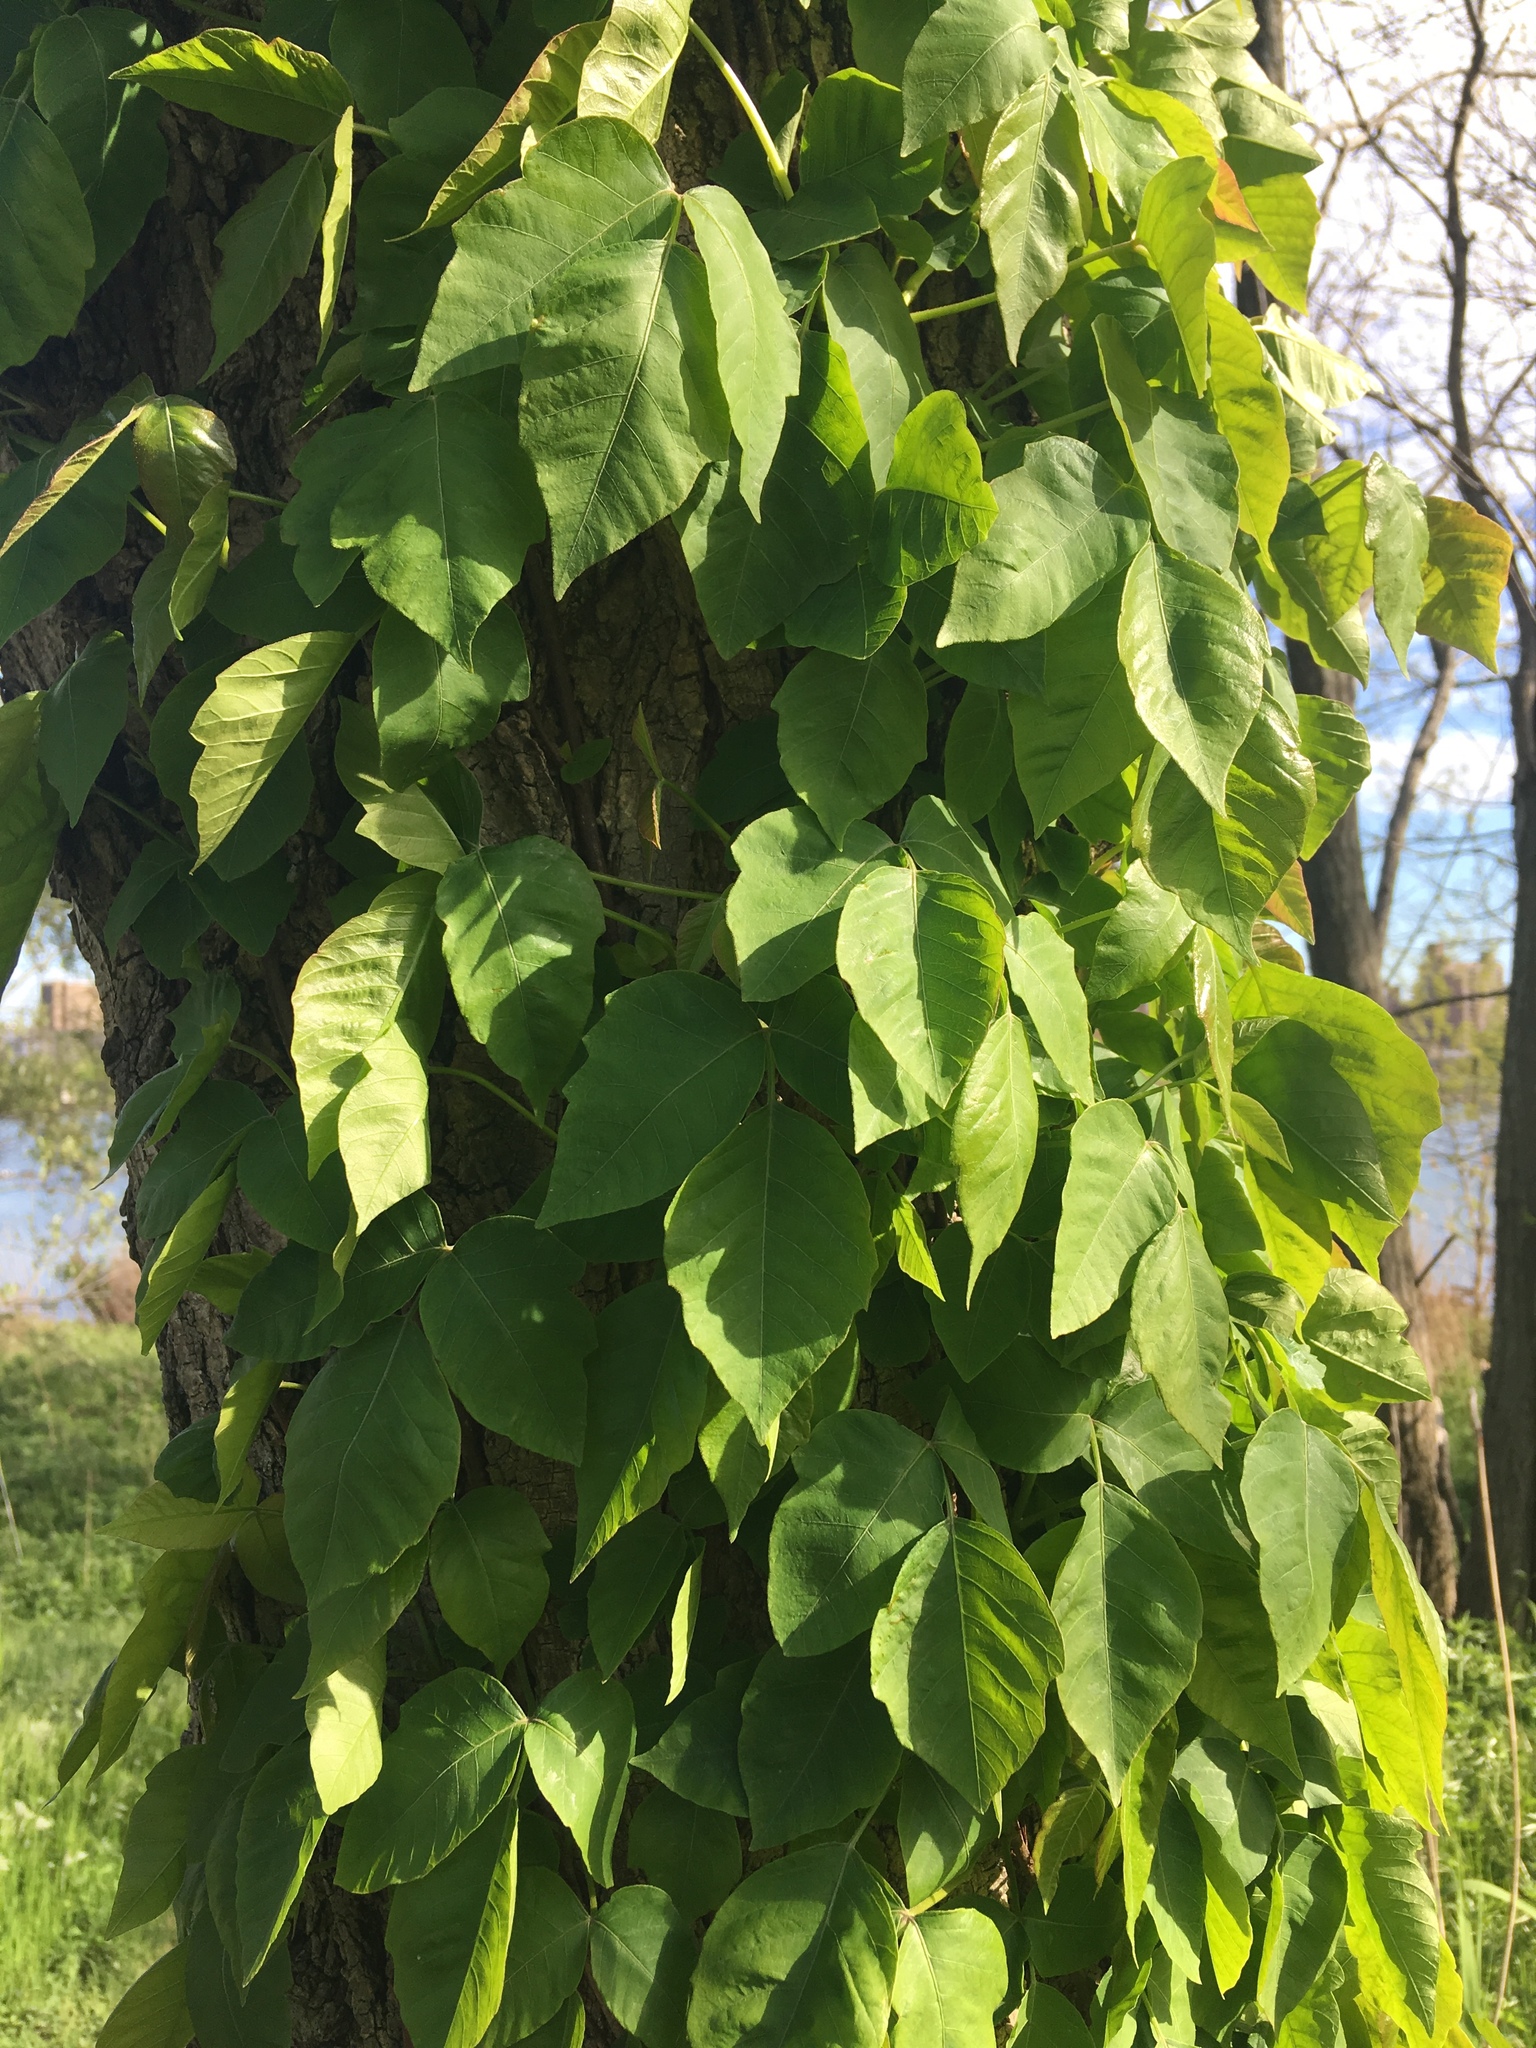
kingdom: Plantae
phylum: Tracheophyta
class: Magnoliopsida
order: Sapindales
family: Anacardiaceae
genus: Toxicodendron
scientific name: Toxicodendron radicans
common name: Poison ivy
